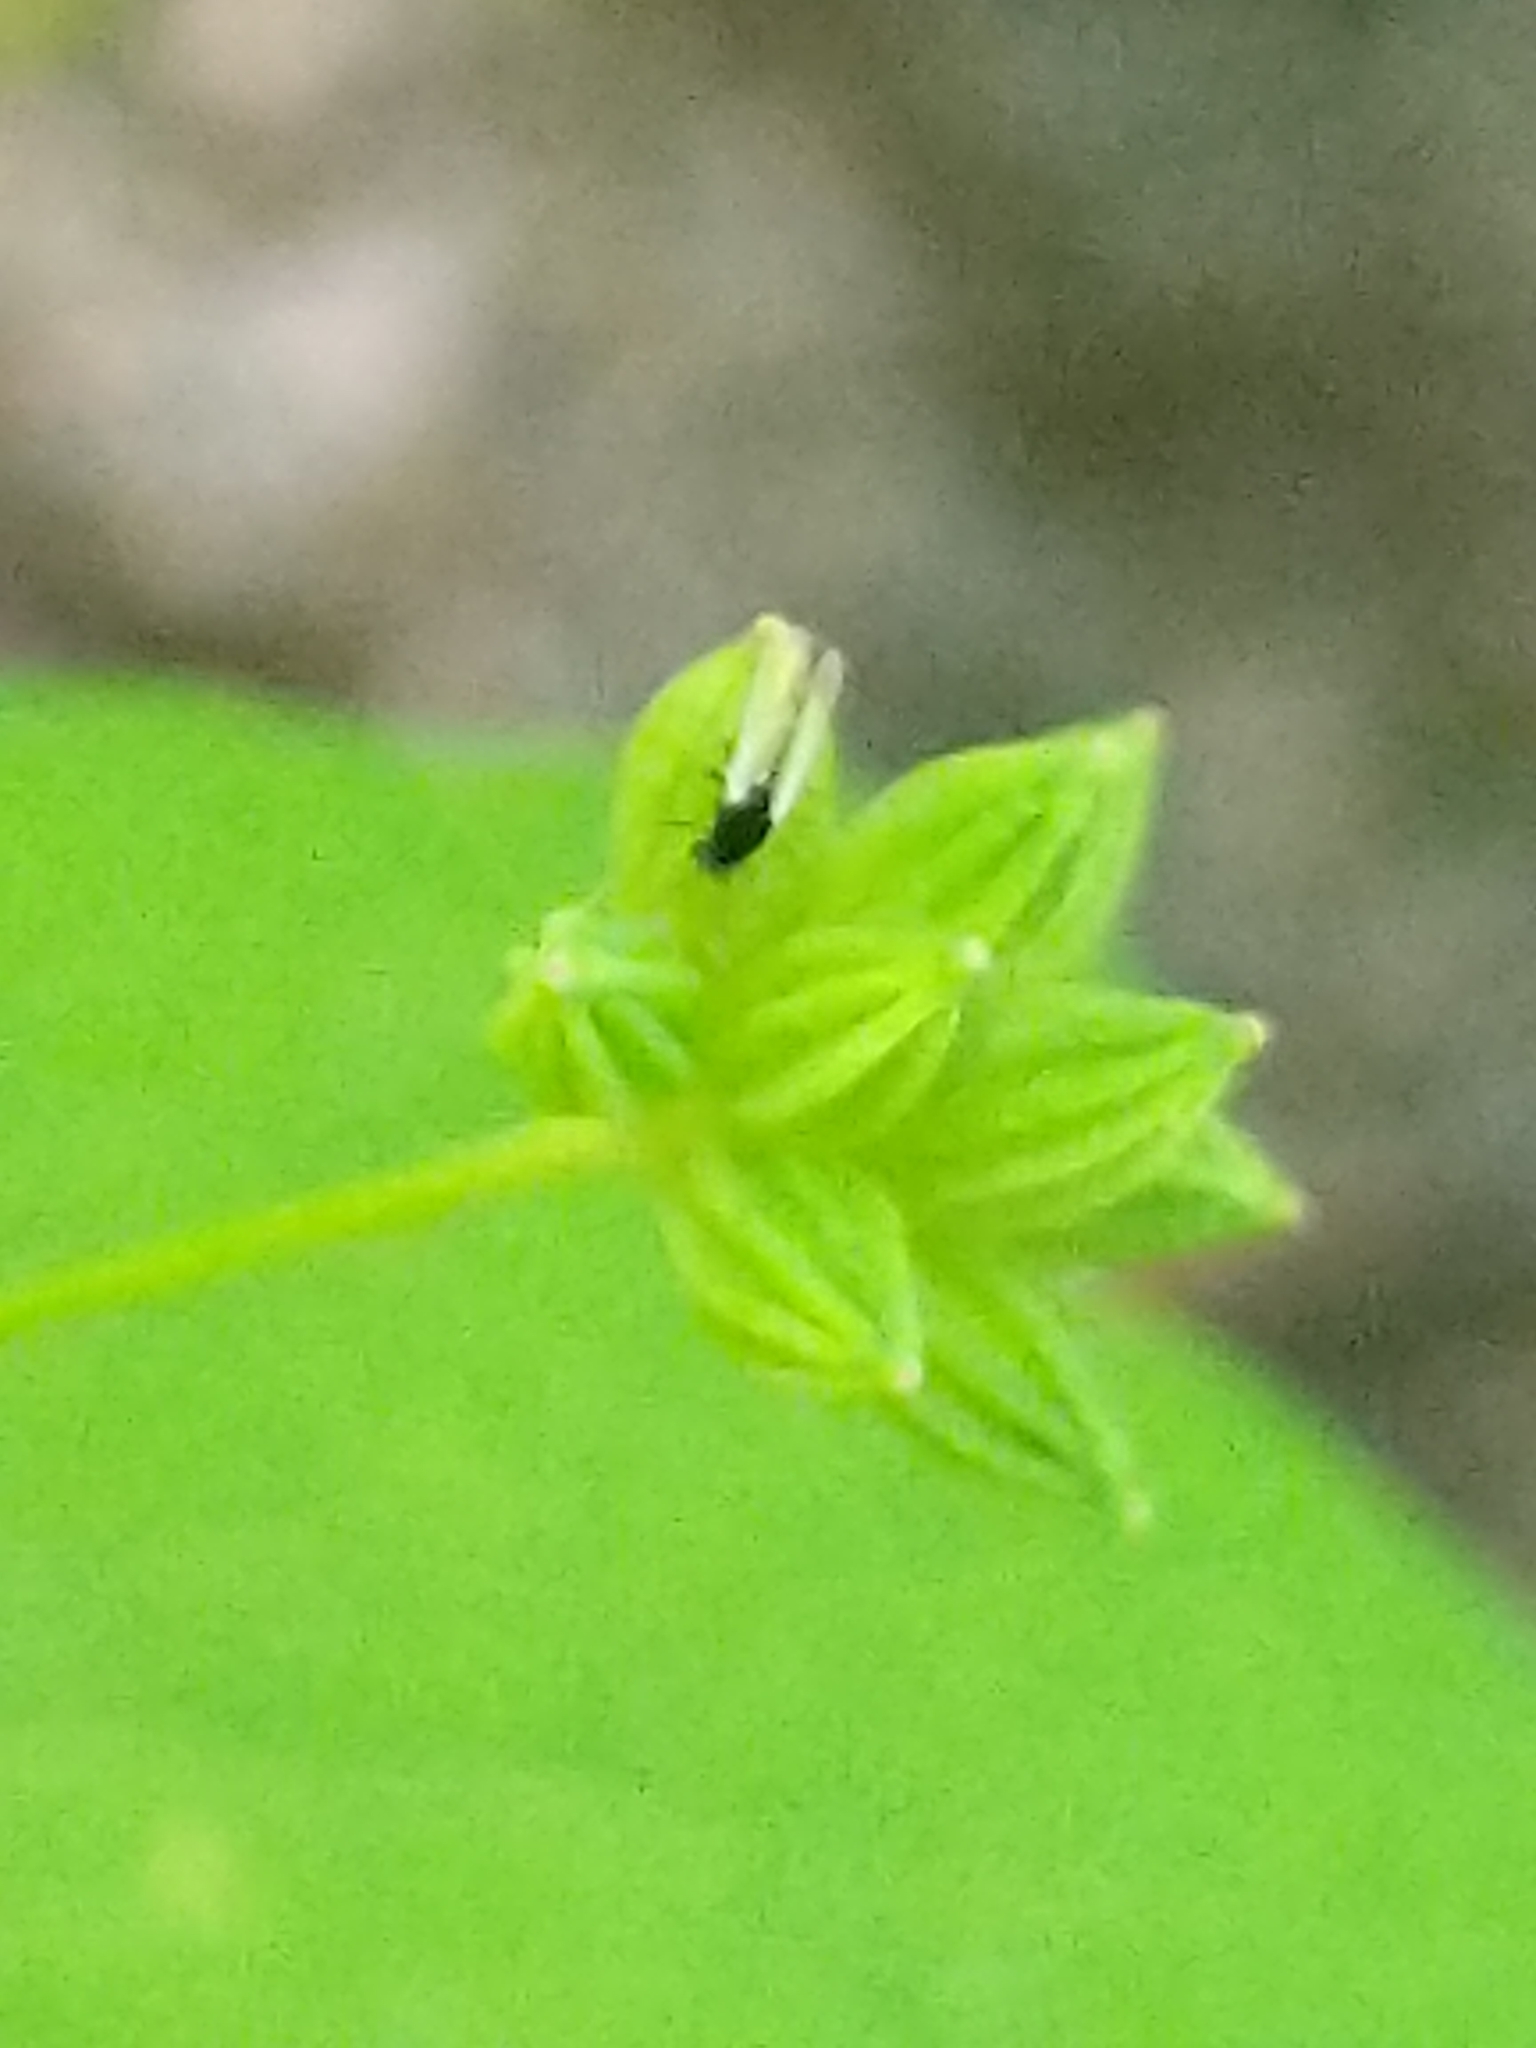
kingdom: Plantae
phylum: Tracheophyta
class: Magnoliopsida
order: Ranunculales
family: Ranunculaceae
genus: Thalictrum
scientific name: Thalictrum thalictroides
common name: Rue-anemone
